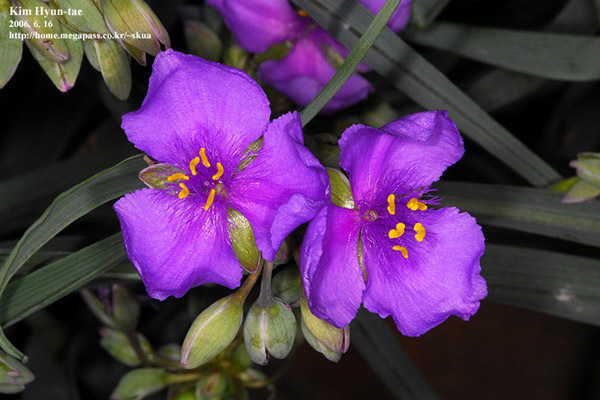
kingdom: Plantae
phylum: Tracheophyta
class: Liliopsida
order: Commelinales
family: Commelinaceae
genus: Tradescantia
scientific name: Tradescantia ohiensis
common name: Ohio spiderwort
